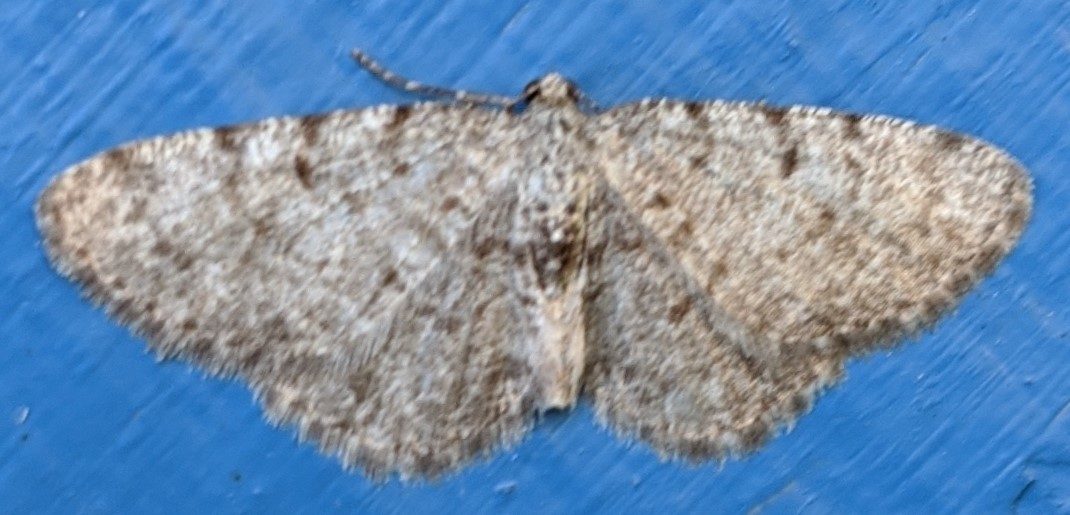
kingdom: Animalia
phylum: Arthropoda
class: Insecta
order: Lepidoptera
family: Geometridae
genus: Aethalura
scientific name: Aethalura intertexta
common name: Four-barred gray
